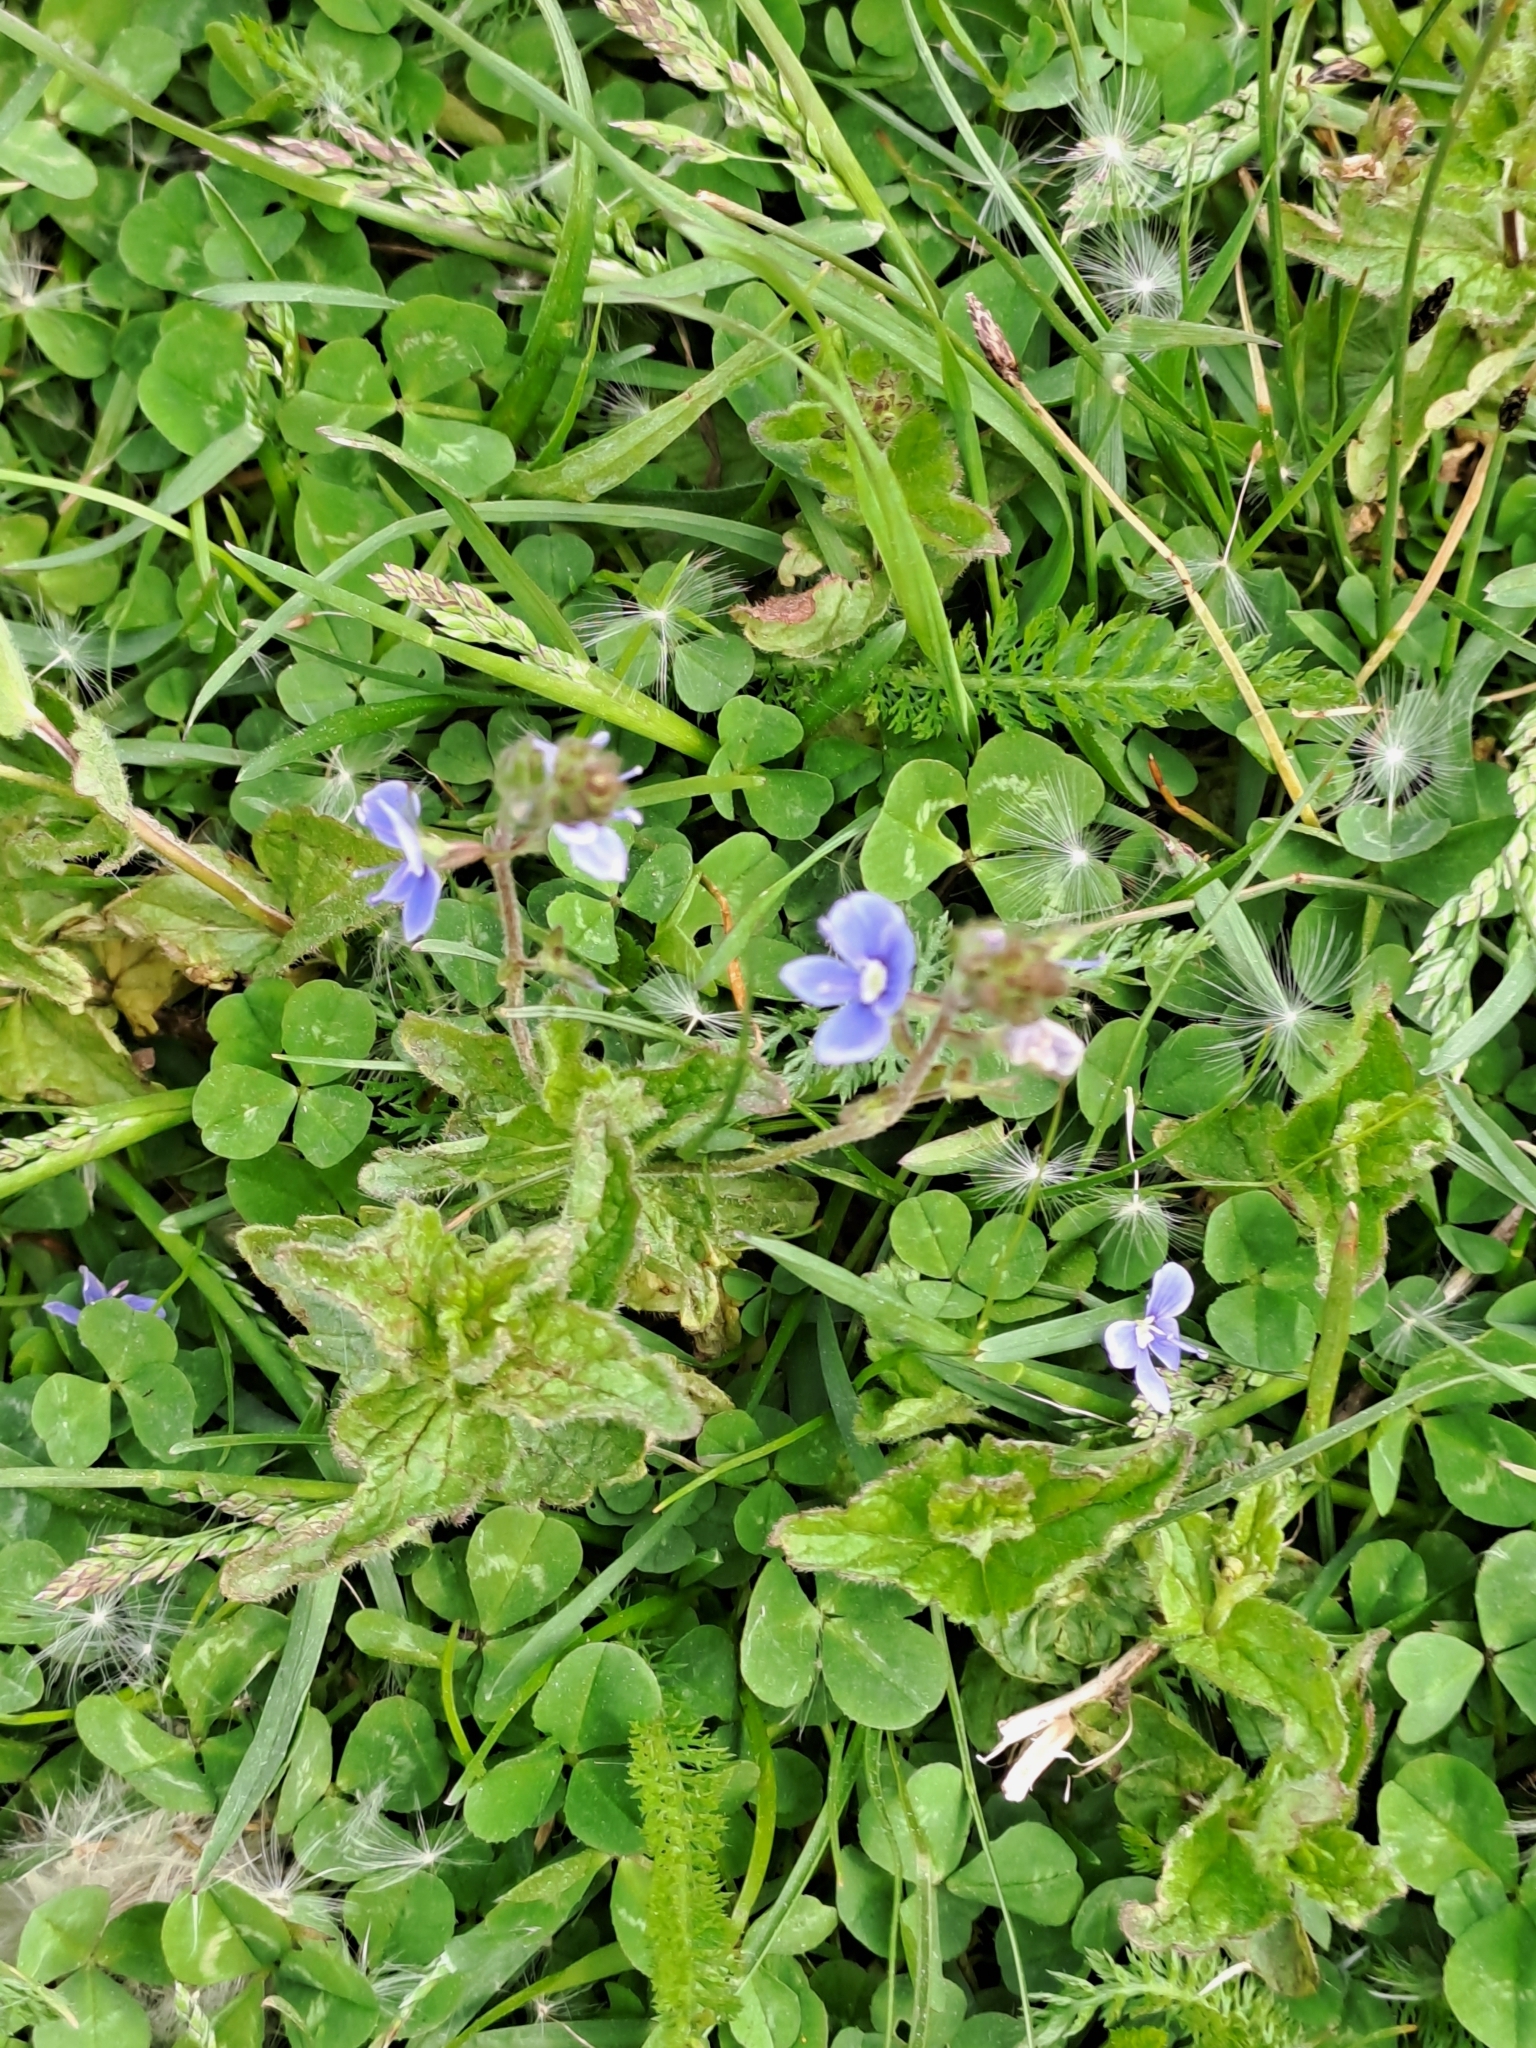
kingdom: Plantae
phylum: Tracheophyta
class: Magnoliopsida
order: Lamiales
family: Plantaginaceae
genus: Veronica
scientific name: Veronica chamaedrys
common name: Germander speedwell
